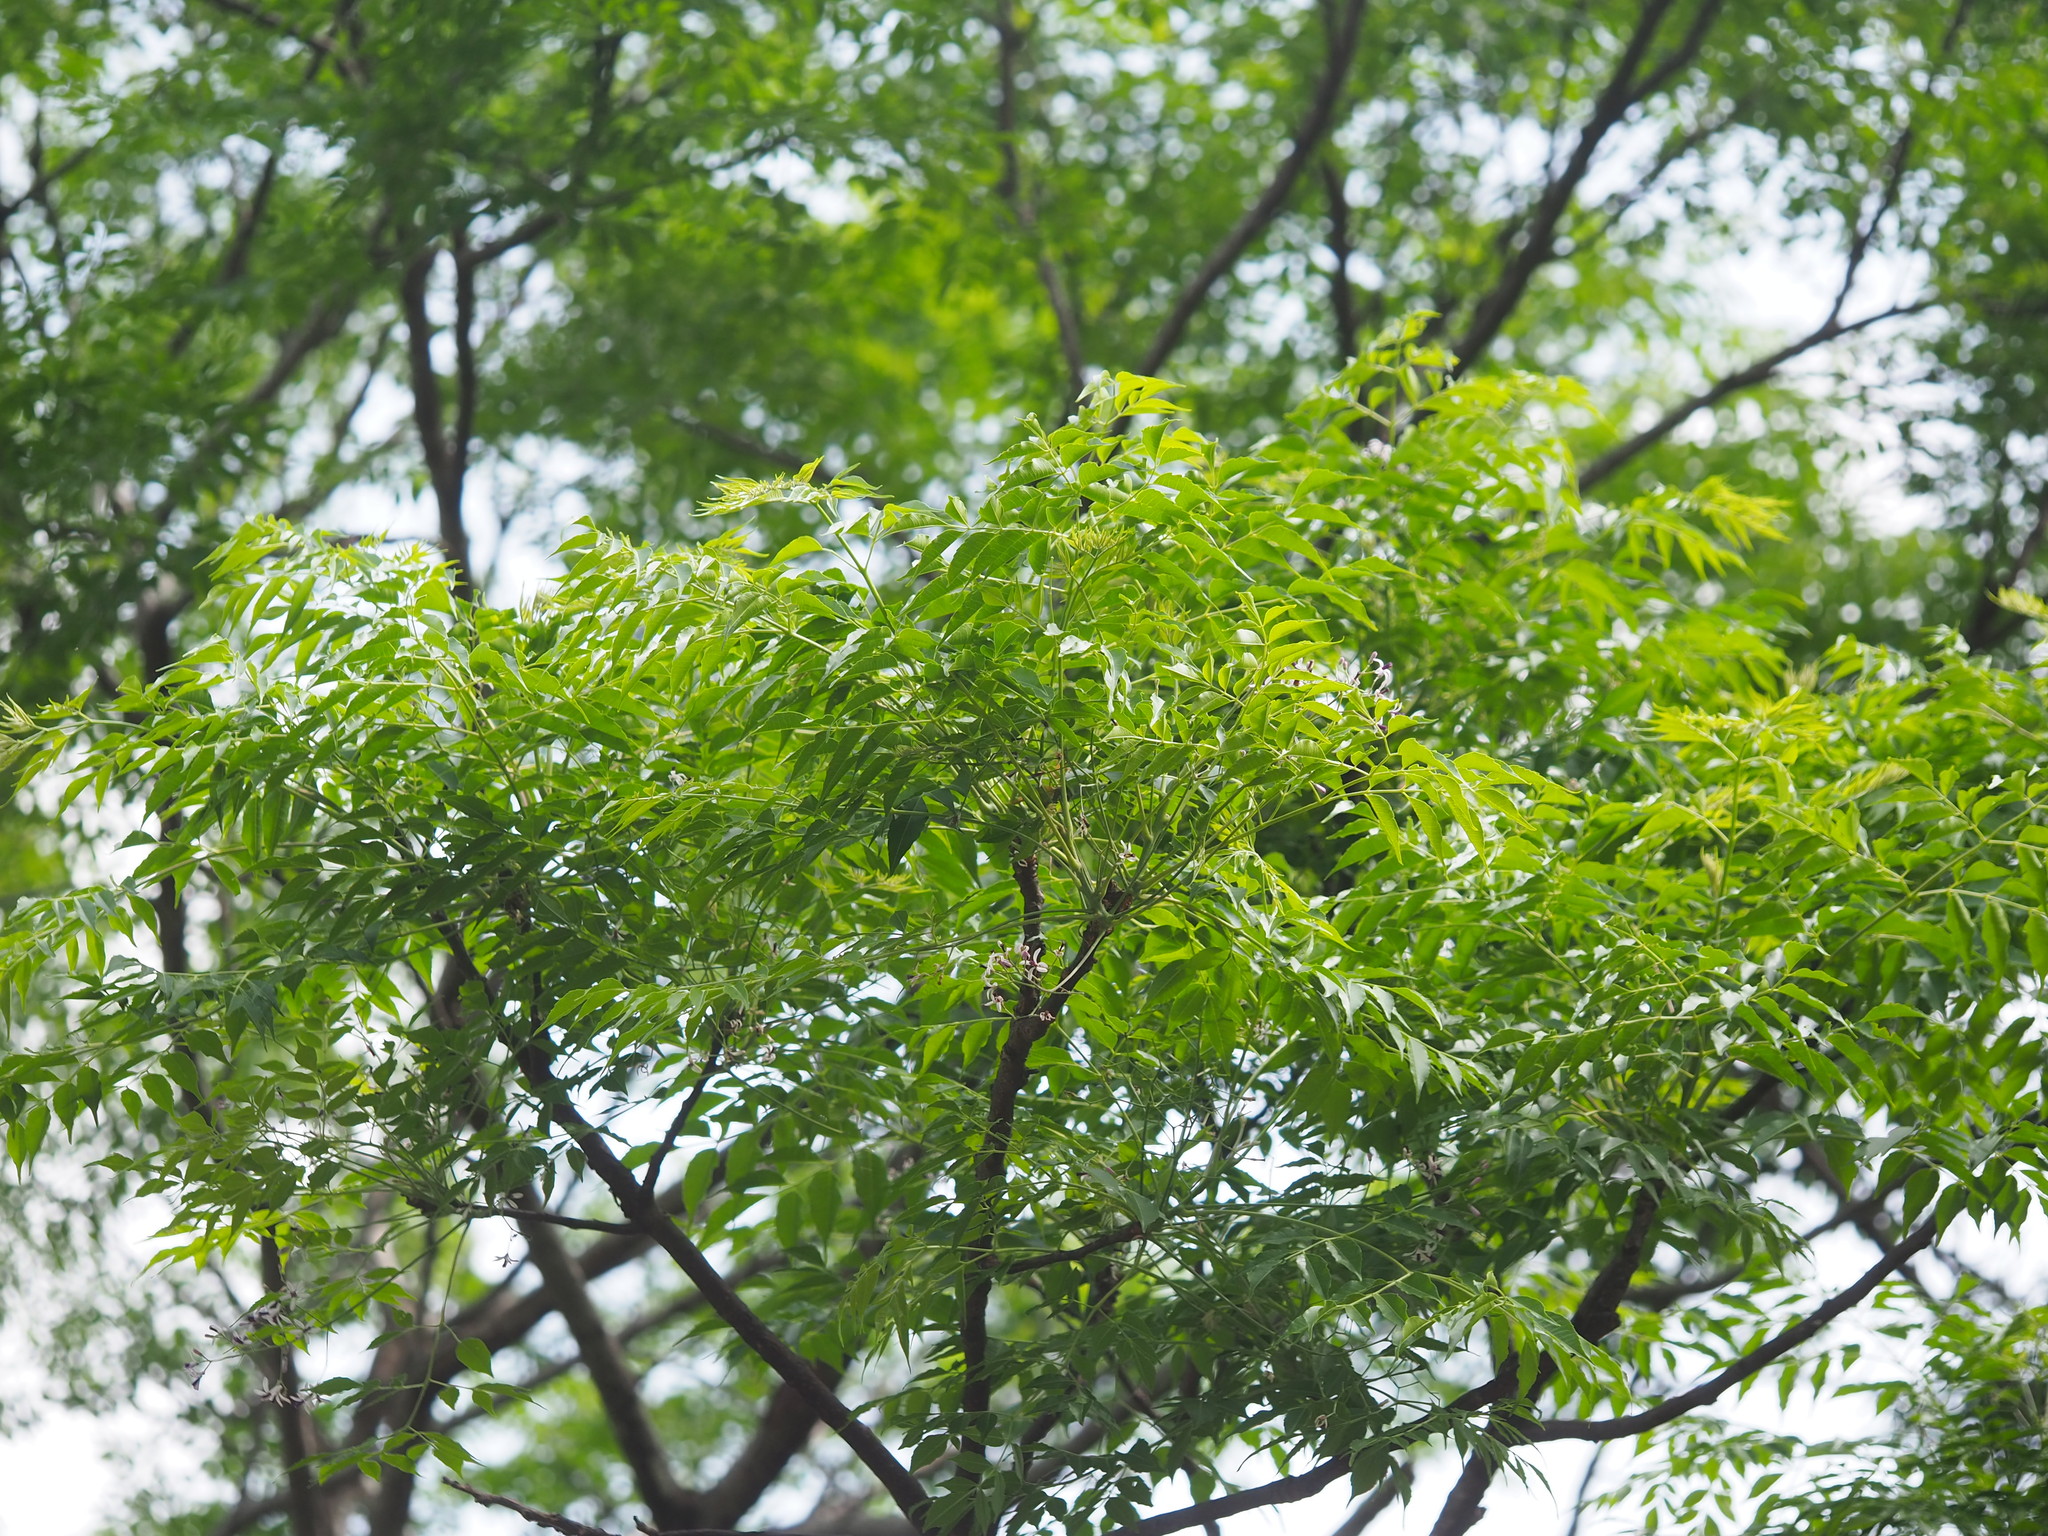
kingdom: Plantae
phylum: Tracheophyta
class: Magnoliopsida
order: Sapindales
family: Meliaceae
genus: Melia
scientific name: Melia azedarach
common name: Chinaberrytree
